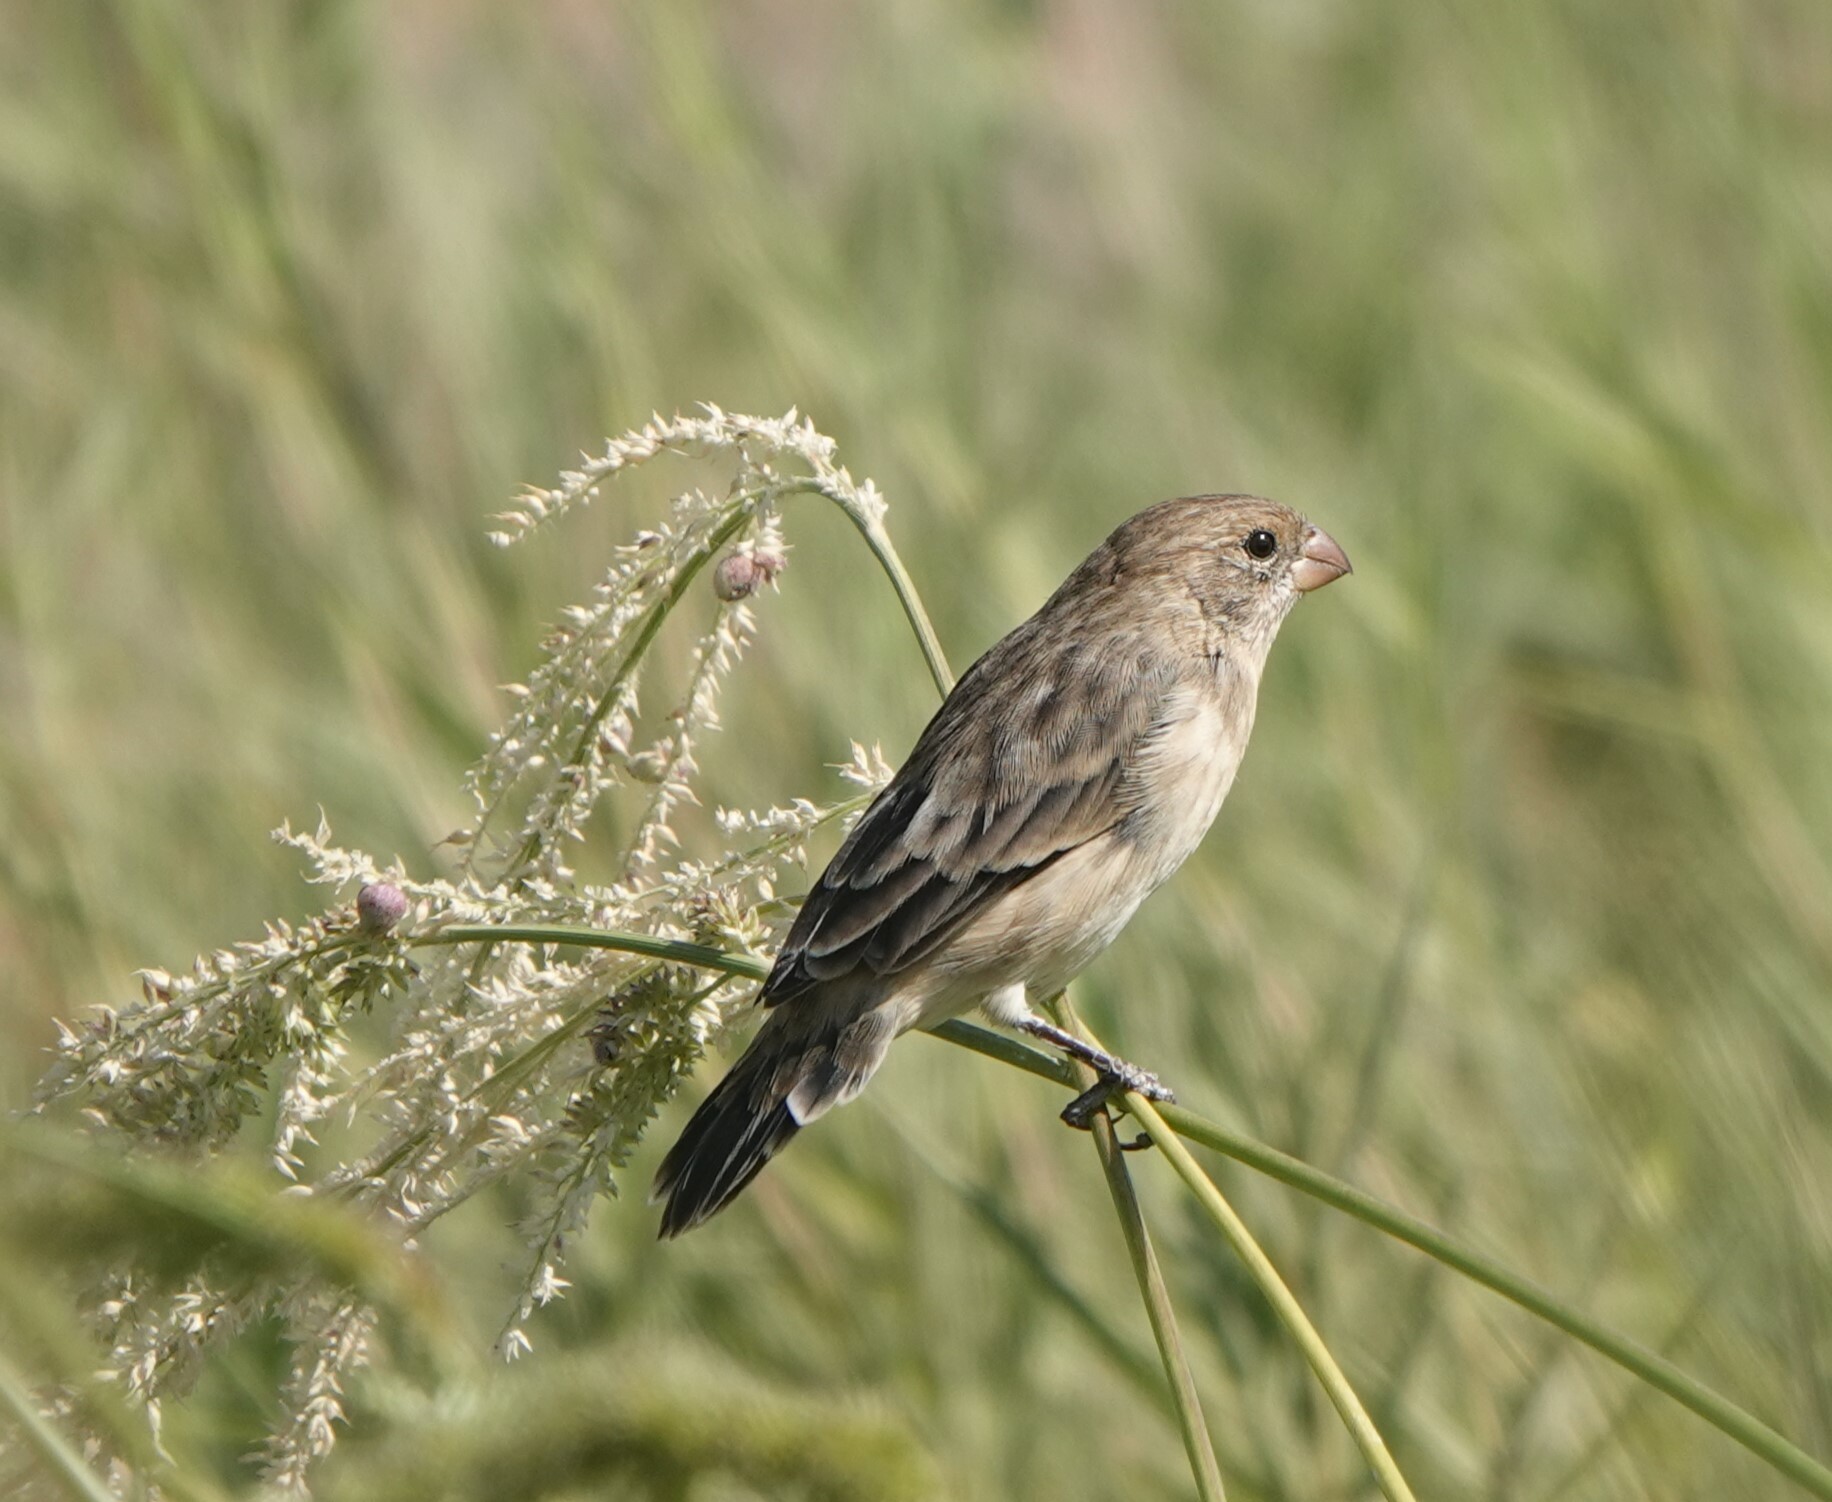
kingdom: Animalia
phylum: Chordata
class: Aves
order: Passeriformes
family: Thraupidae
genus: Sporophila
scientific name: Sporophila telasco
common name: Chestnut-throated seedeater
